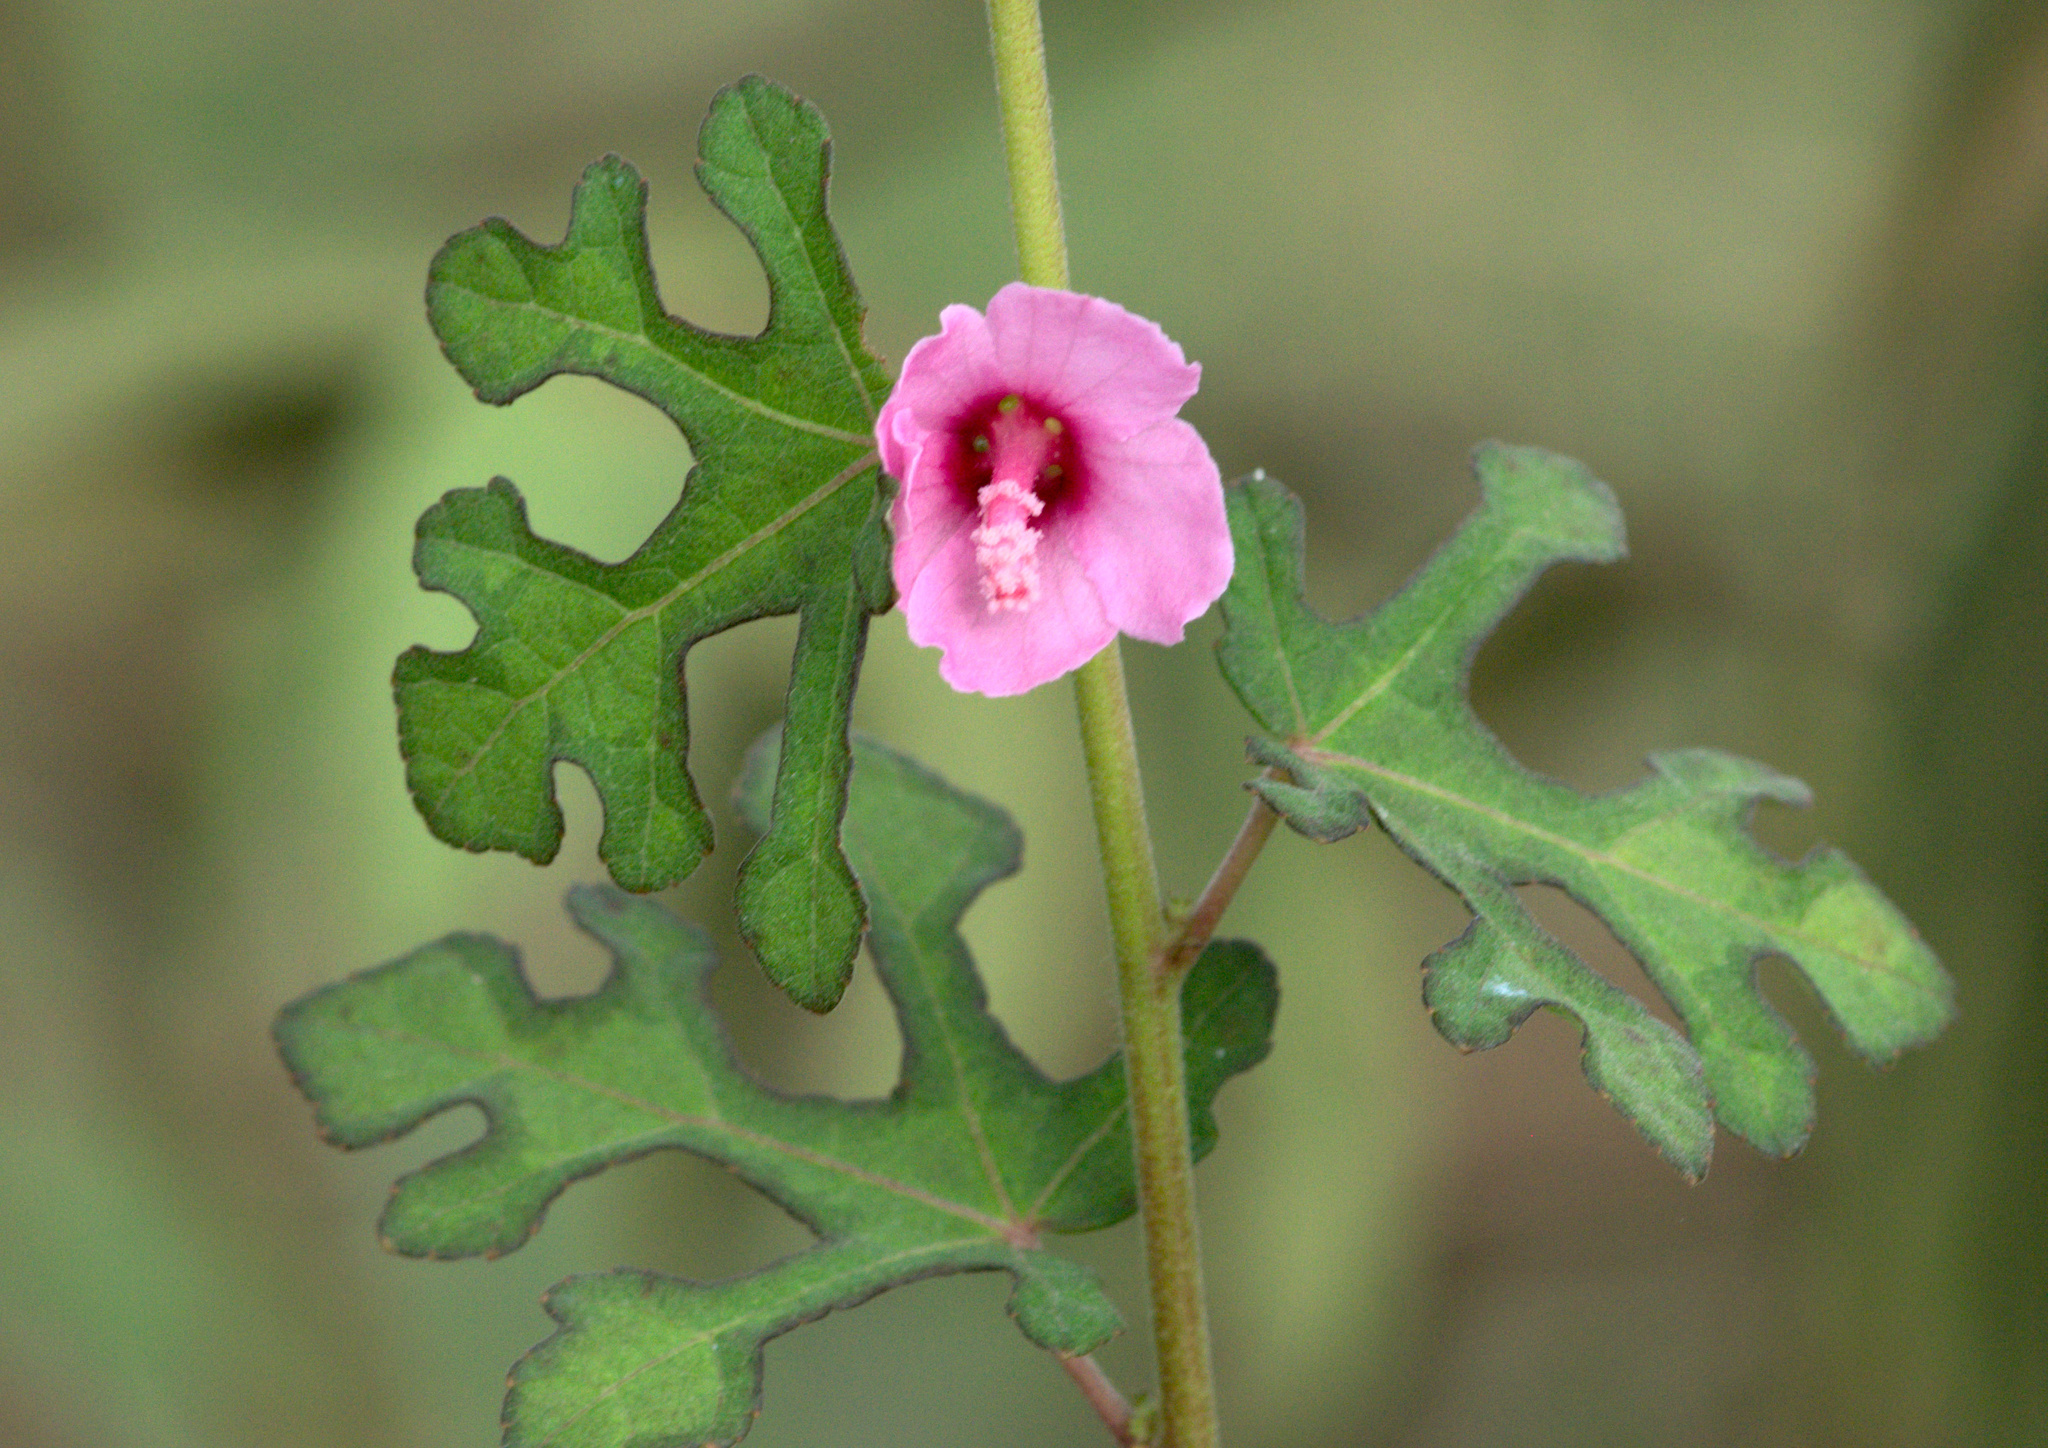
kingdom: Plantae
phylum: Tracheophyta
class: Magnoliopsida
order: Malvales
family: Malvaceae
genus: Urena
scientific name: Urena procumbens
